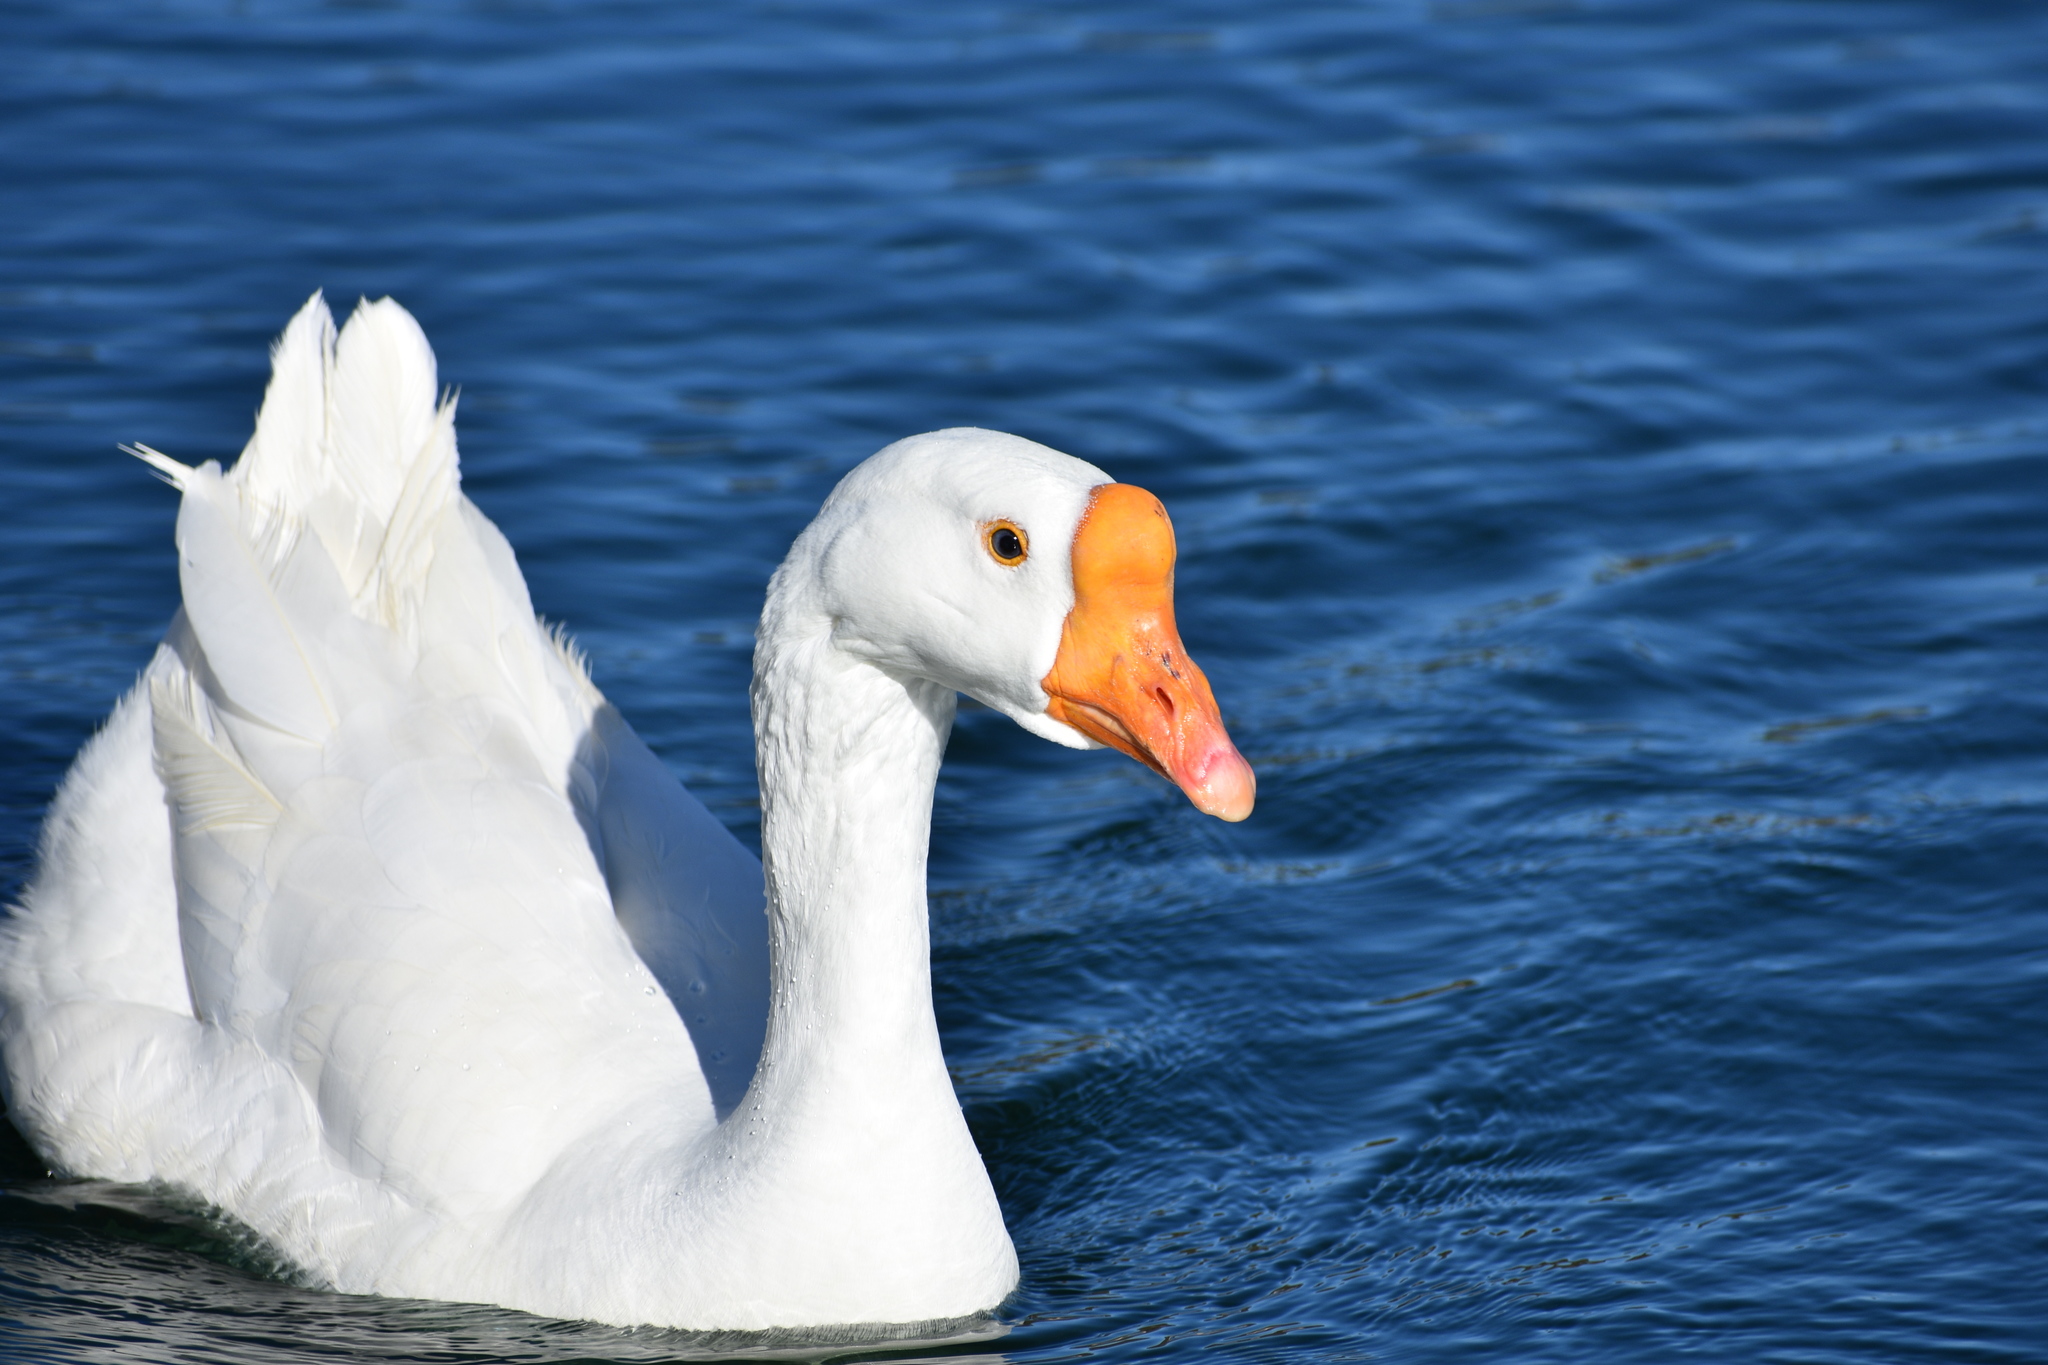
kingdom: Animalia
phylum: Chordata
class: Aves
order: Anseriformes
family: Anatidae
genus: Anser
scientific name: Anser cygnoides
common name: Swan goose
